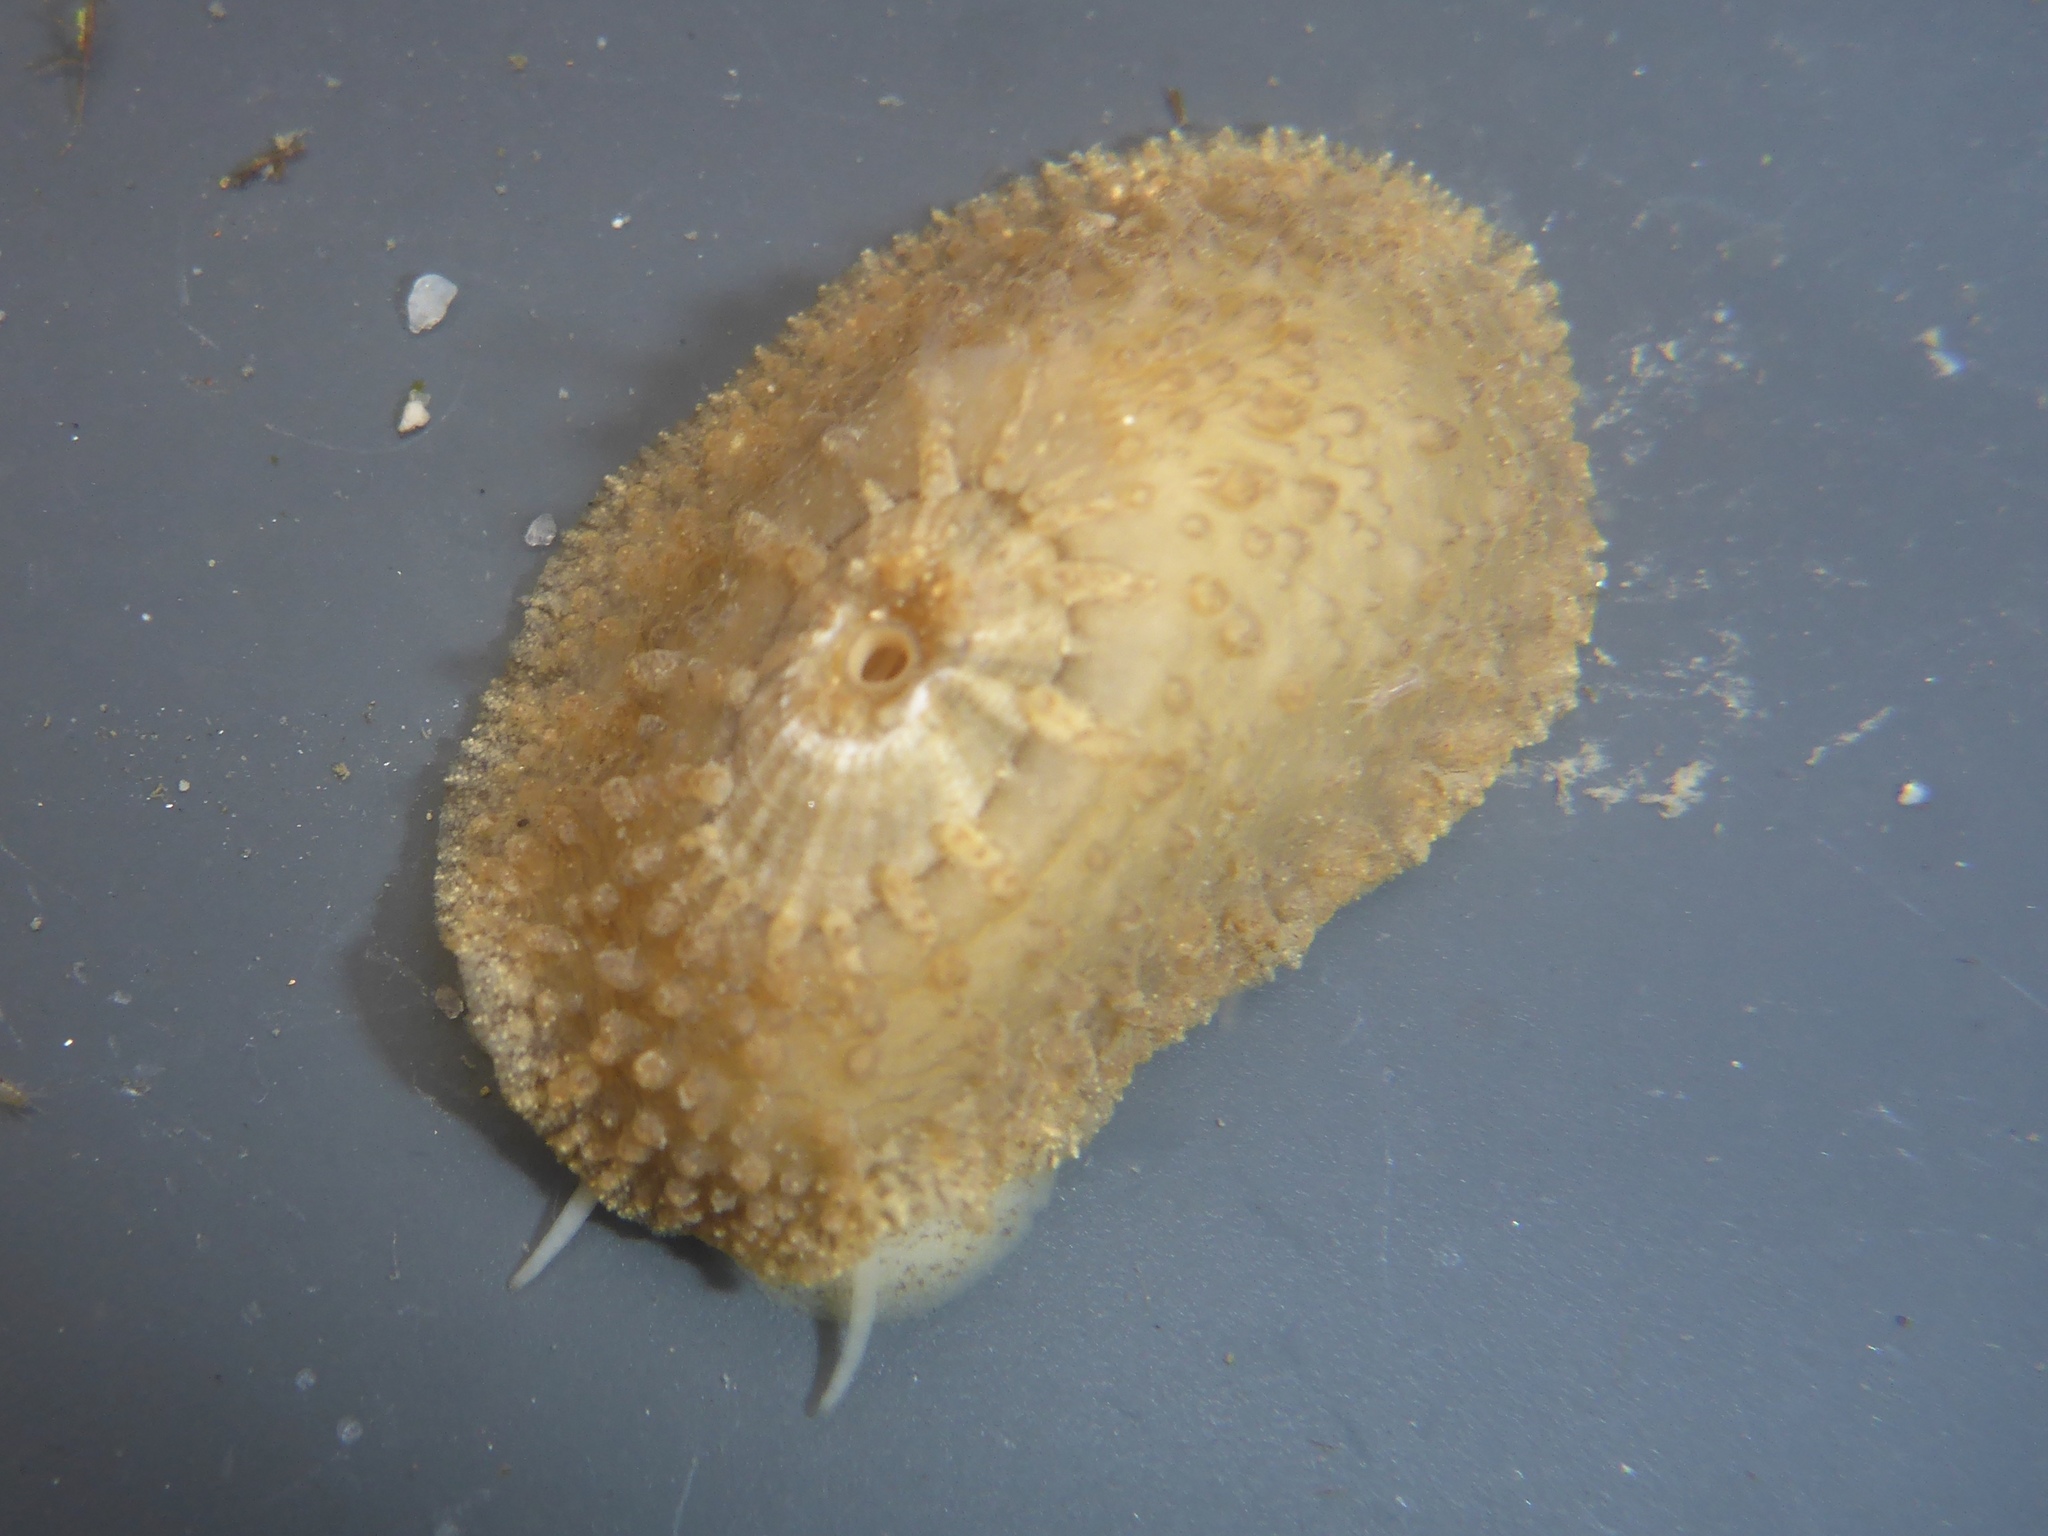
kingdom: Animalia
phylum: Mollusca
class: Gastropoda
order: Lepetellida
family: Fissurellidae
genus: Fissurellidea
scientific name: Fissurellidea bimaculata
